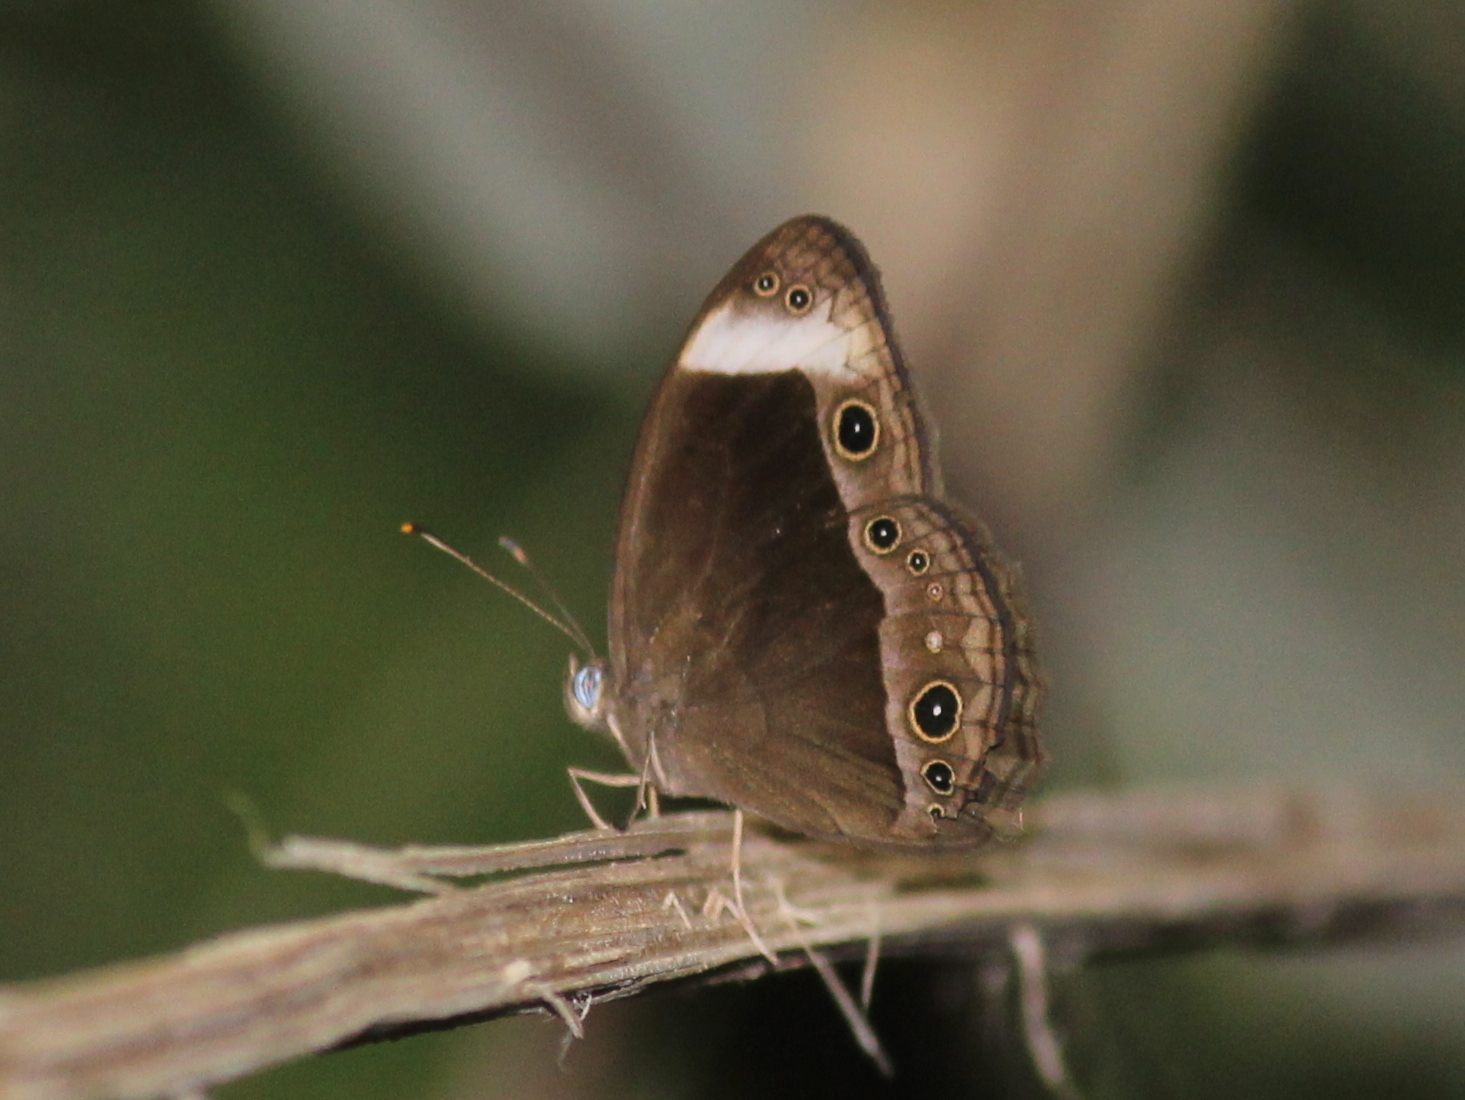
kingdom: Animalia
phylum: Arthropoda
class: Insecta
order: Lepidoptera
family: Nymphalidae
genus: Mycalesis
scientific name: Mycalesis anaxias
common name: White-bar bushbrown
